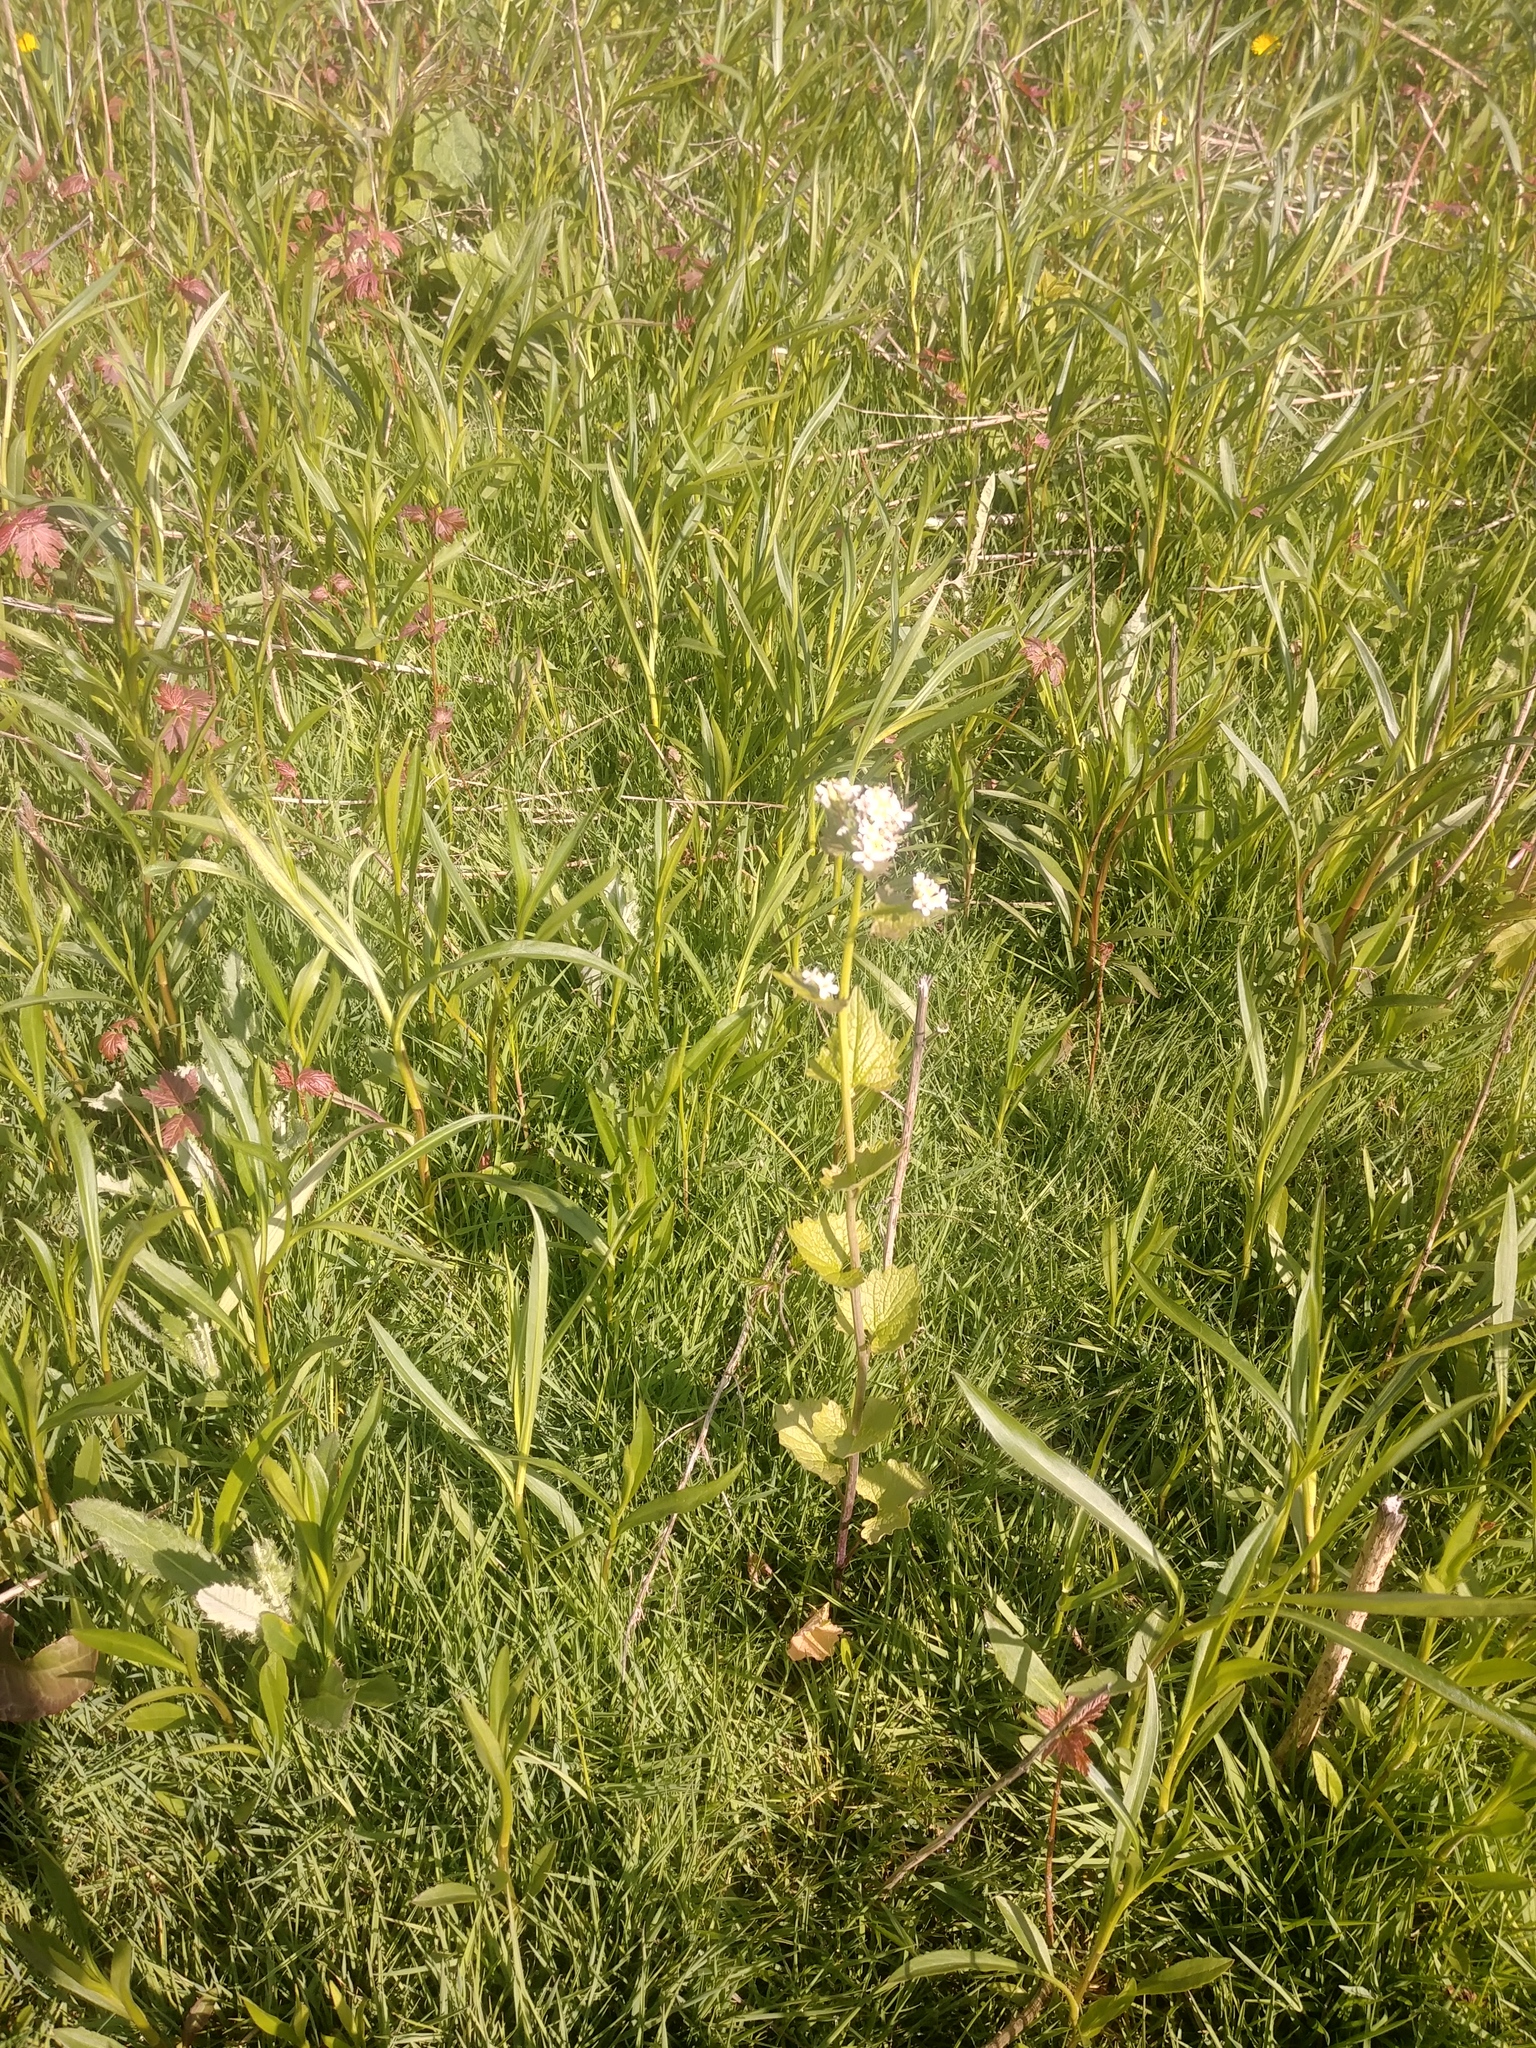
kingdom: Plantae
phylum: Tracheophyta
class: Magnoliopsida
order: Brassicales
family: Brassicaceae
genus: Alliaria
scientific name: Alliaria petiolata
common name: Garlic mustard
